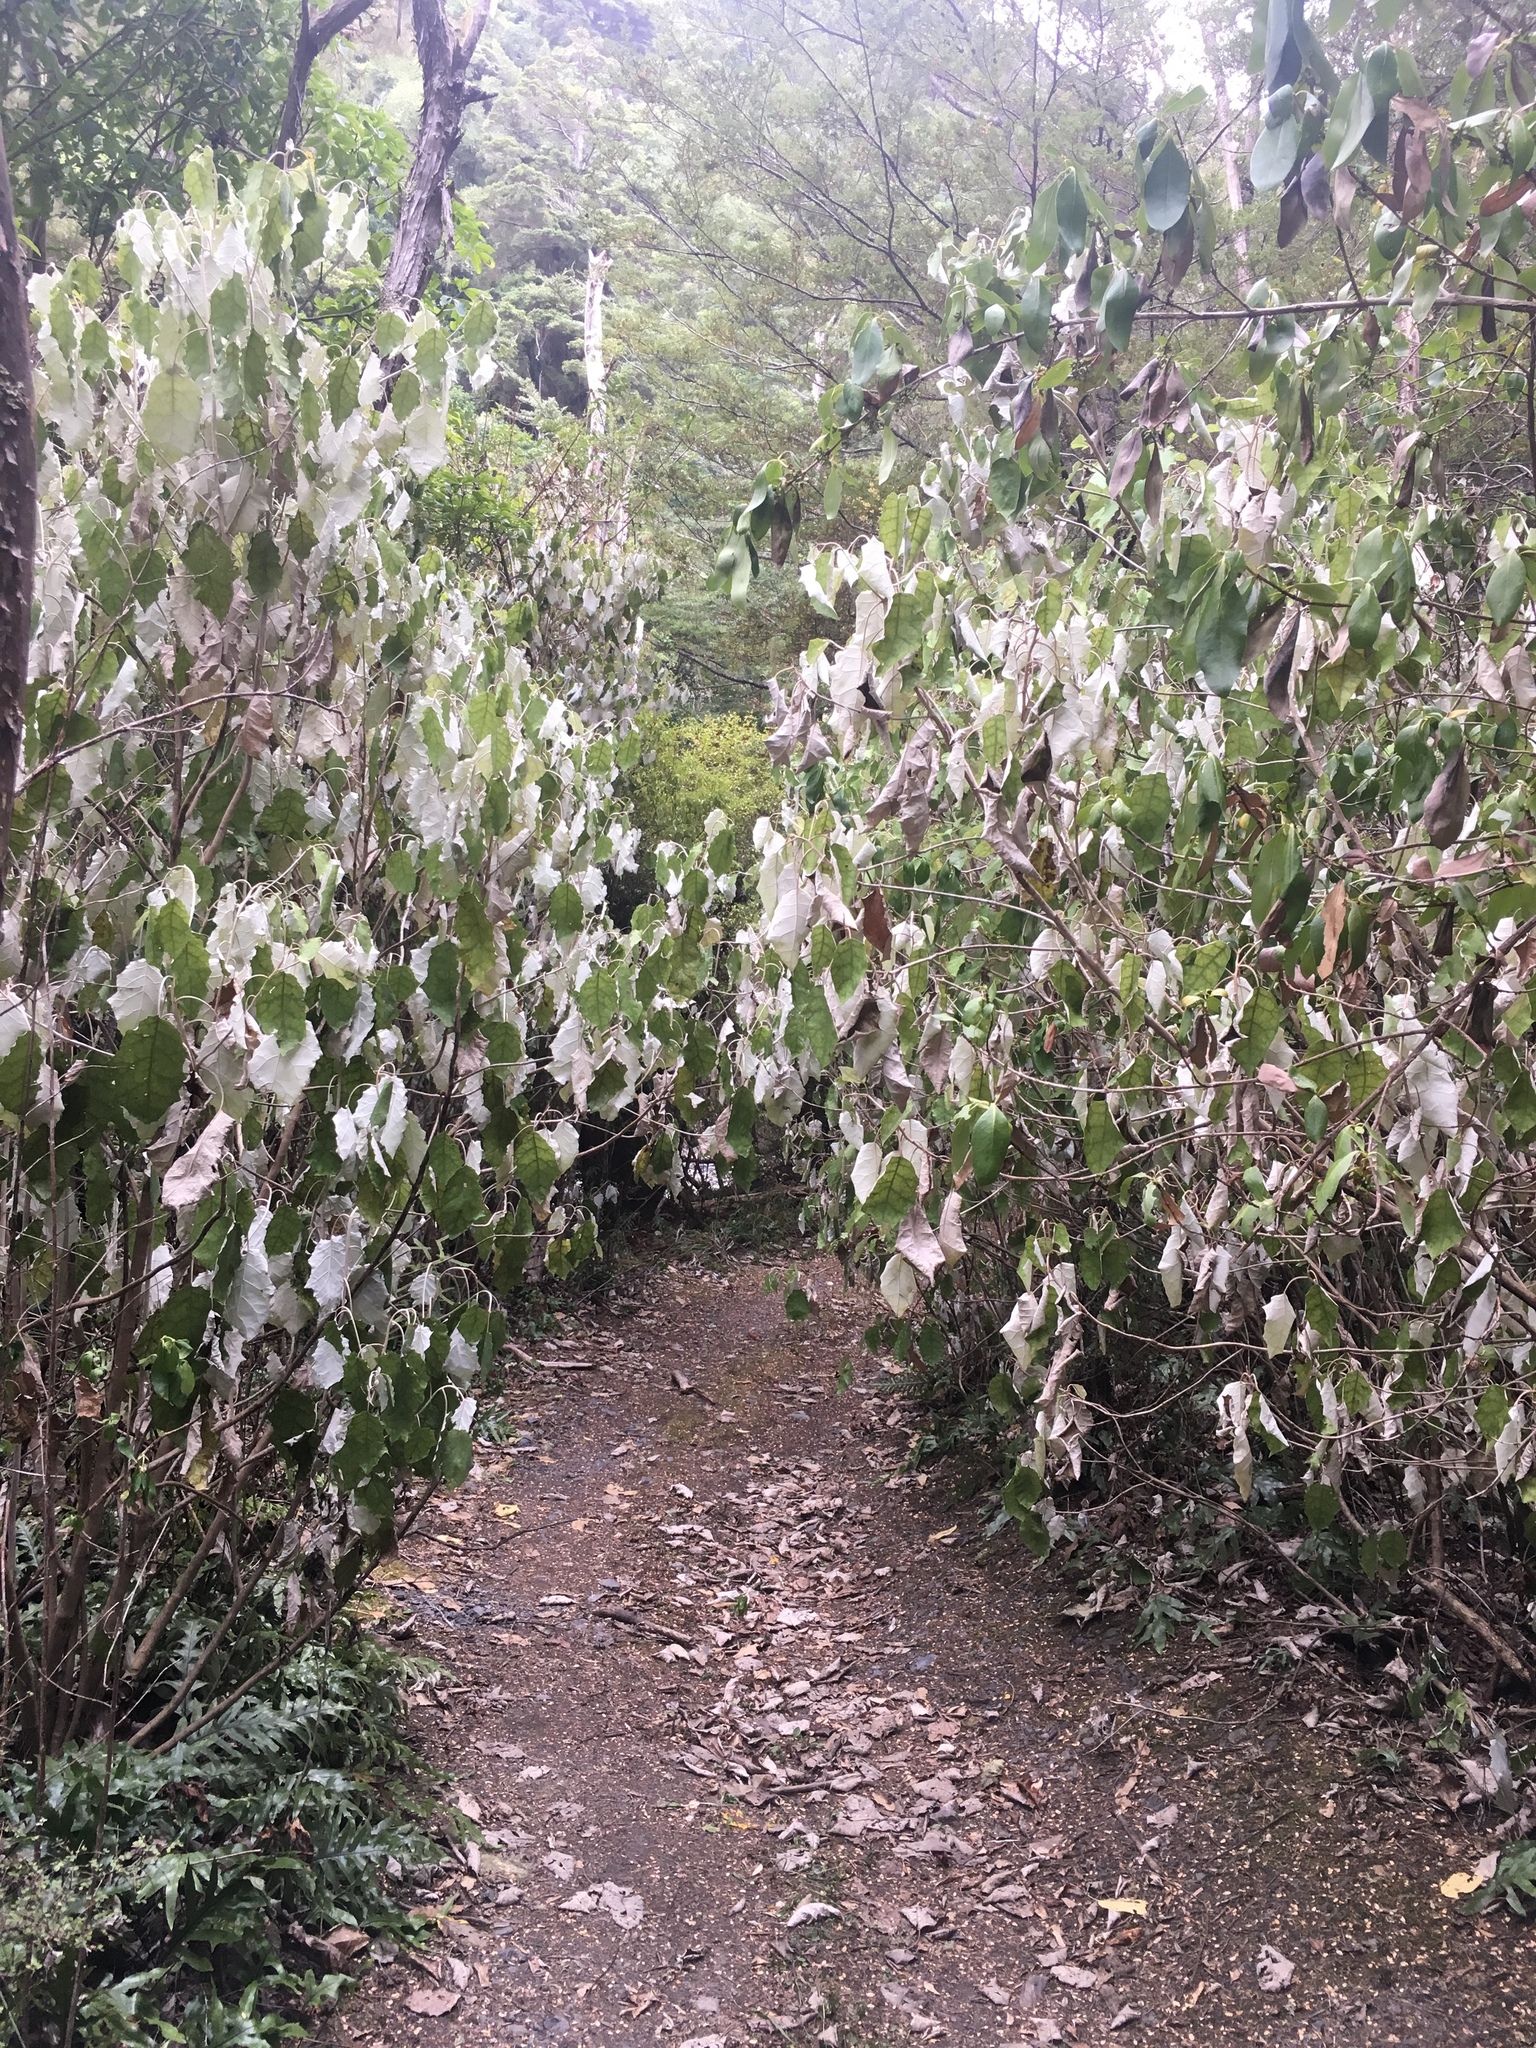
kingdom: Plantae
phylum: Tracheophyta
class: Magnoliopsida
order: Asterales
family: Asteraceae
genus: Brachyglottis
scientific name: Brachyglottis repanda
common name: Hedge ragwort
